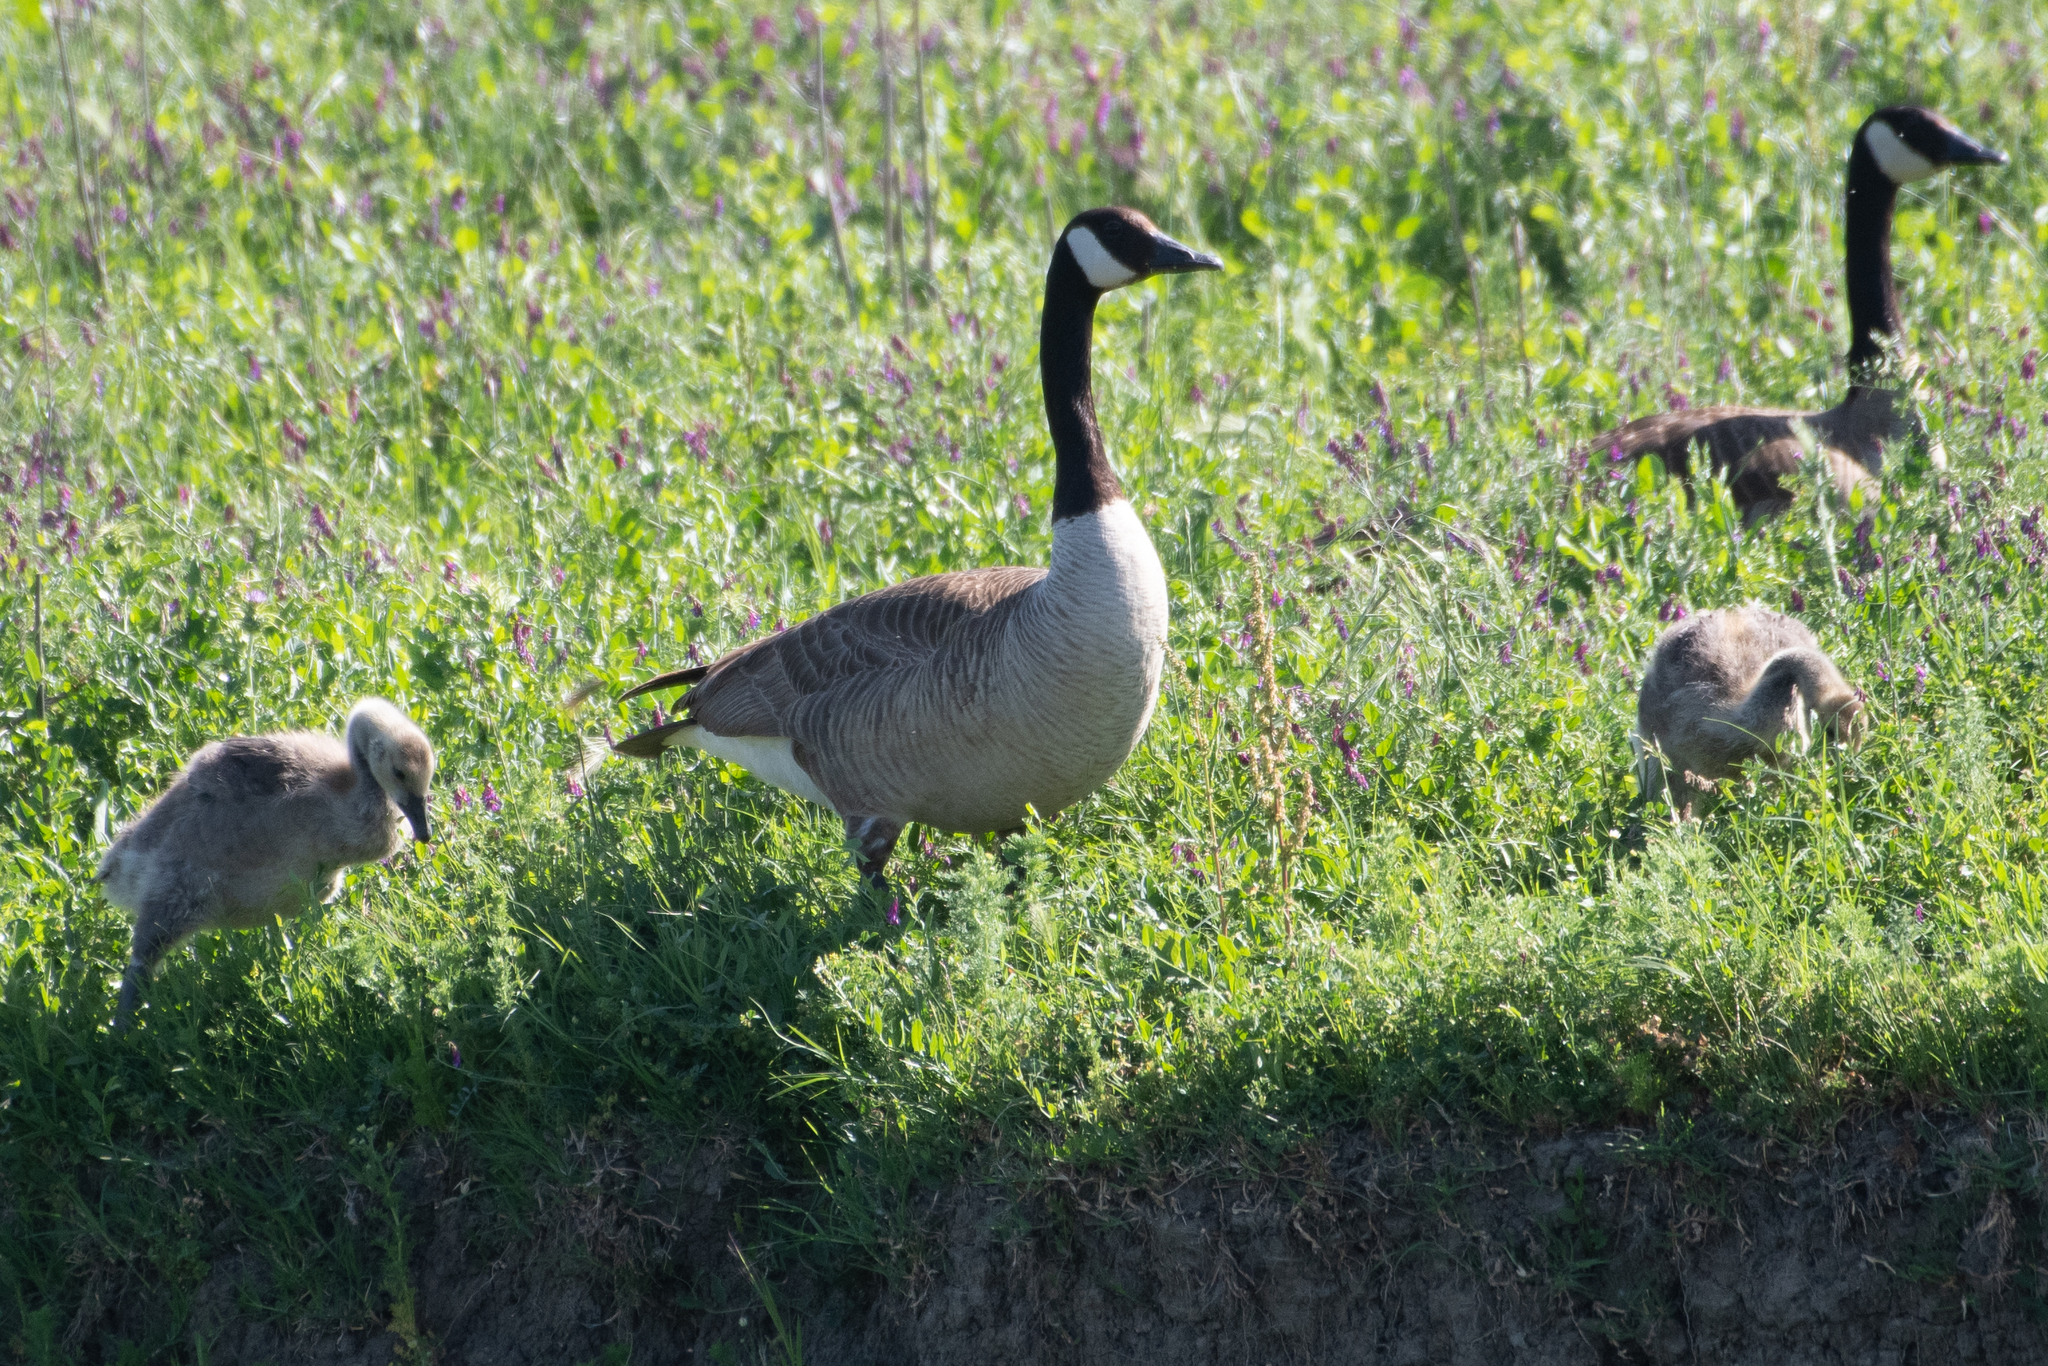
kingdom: Animalia
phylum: Chordata
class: Aves
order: Anseriformes
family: Anatidae
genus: Branta
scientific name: Branta canadensis
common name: Canada goose
